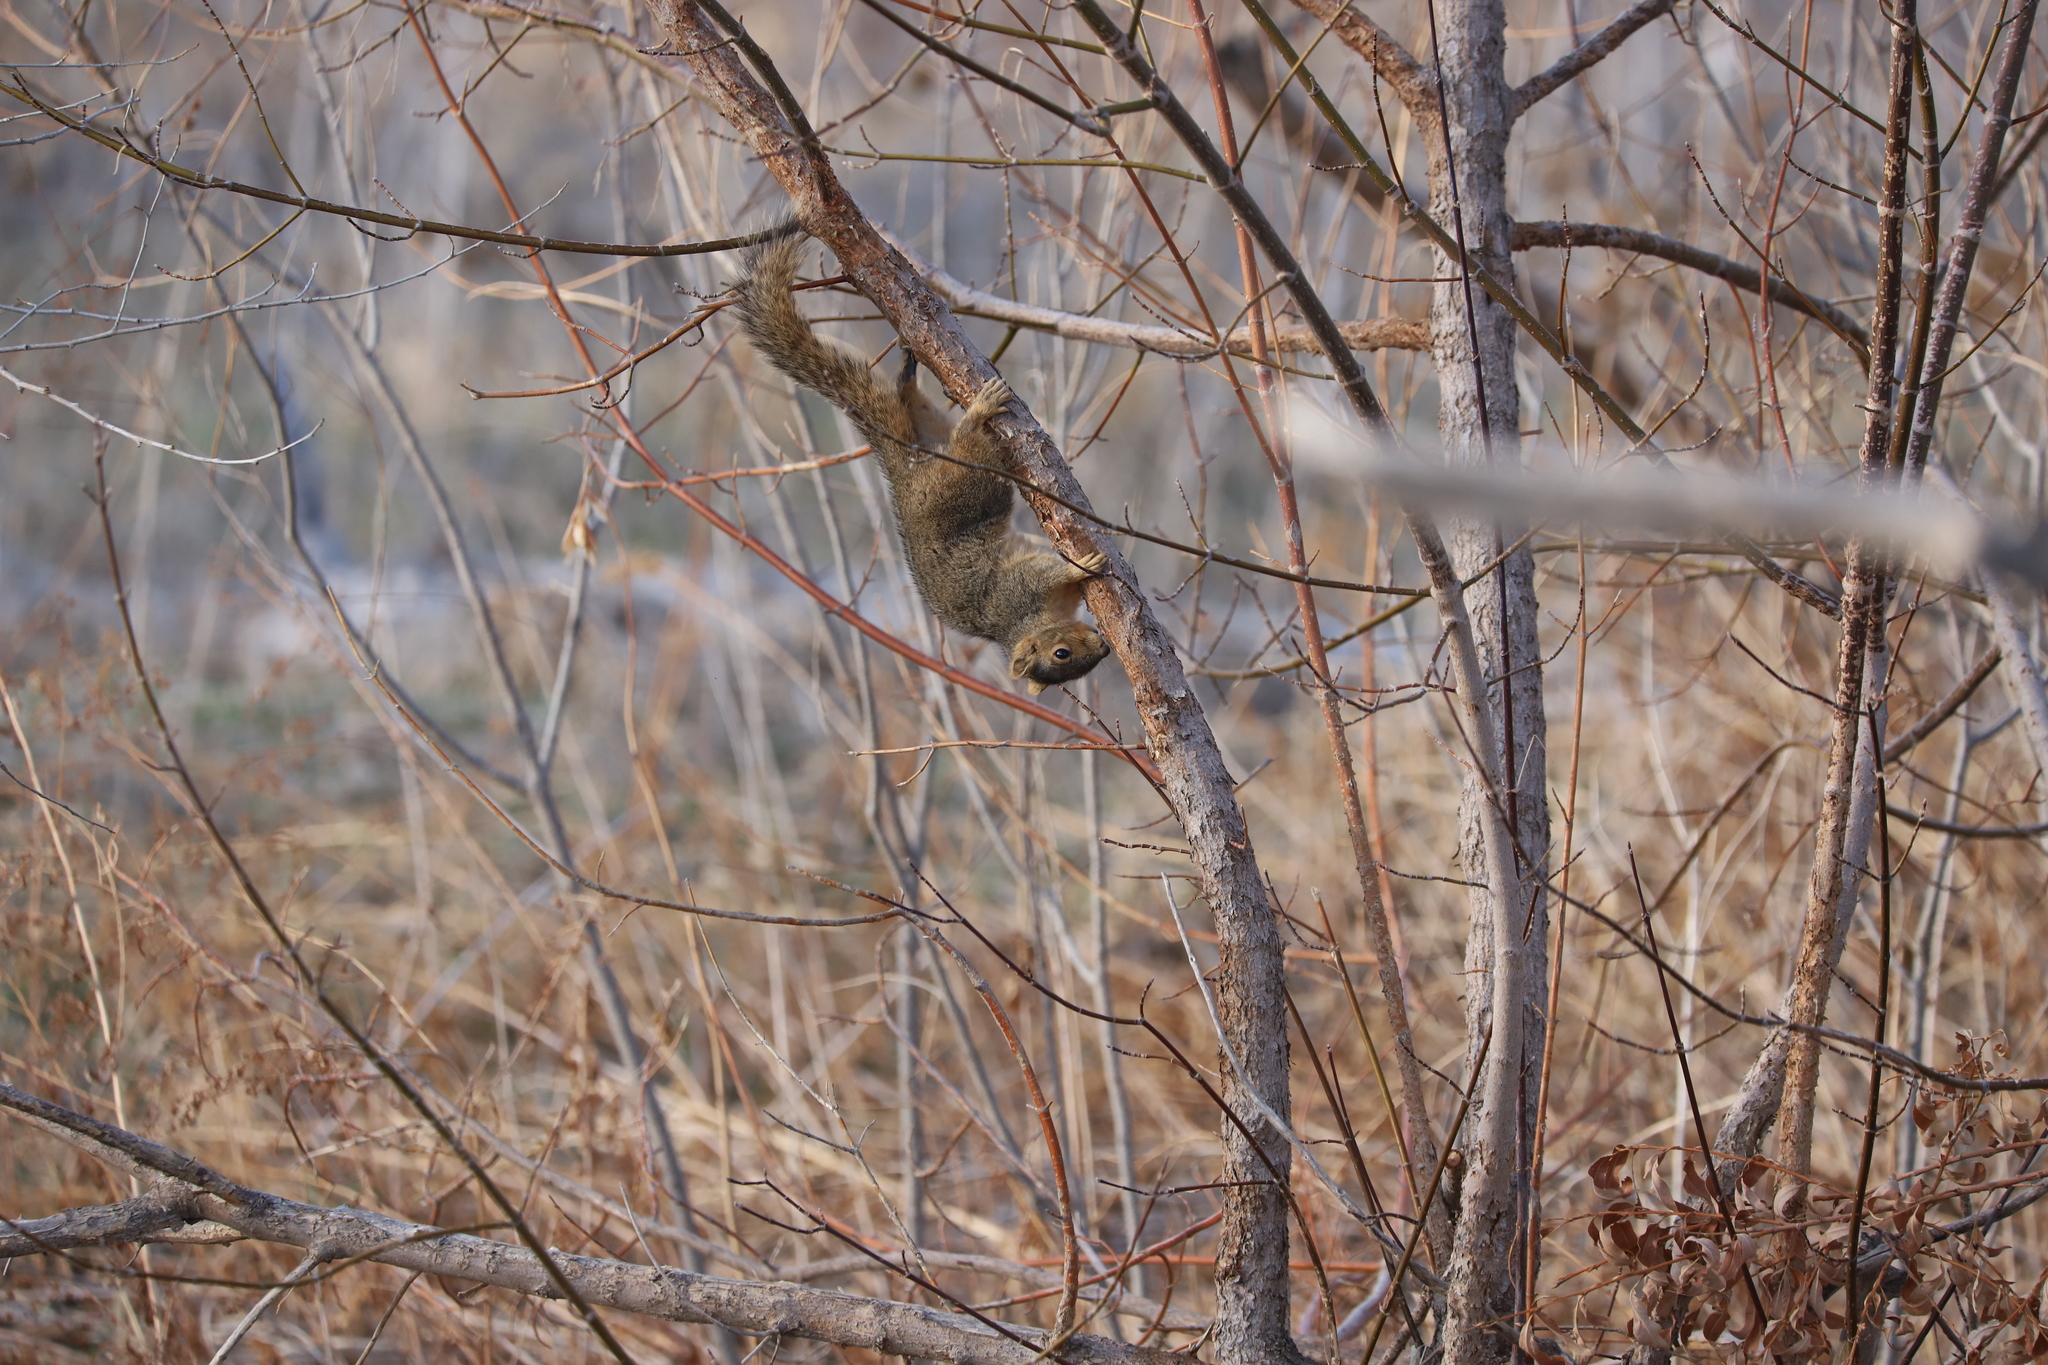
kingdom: Animalia
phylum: Chordata
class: Mammalia
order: Rodentia
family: Sciuridae
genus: Sciurus
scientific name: Sciurus niger
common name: Fox squirrel
